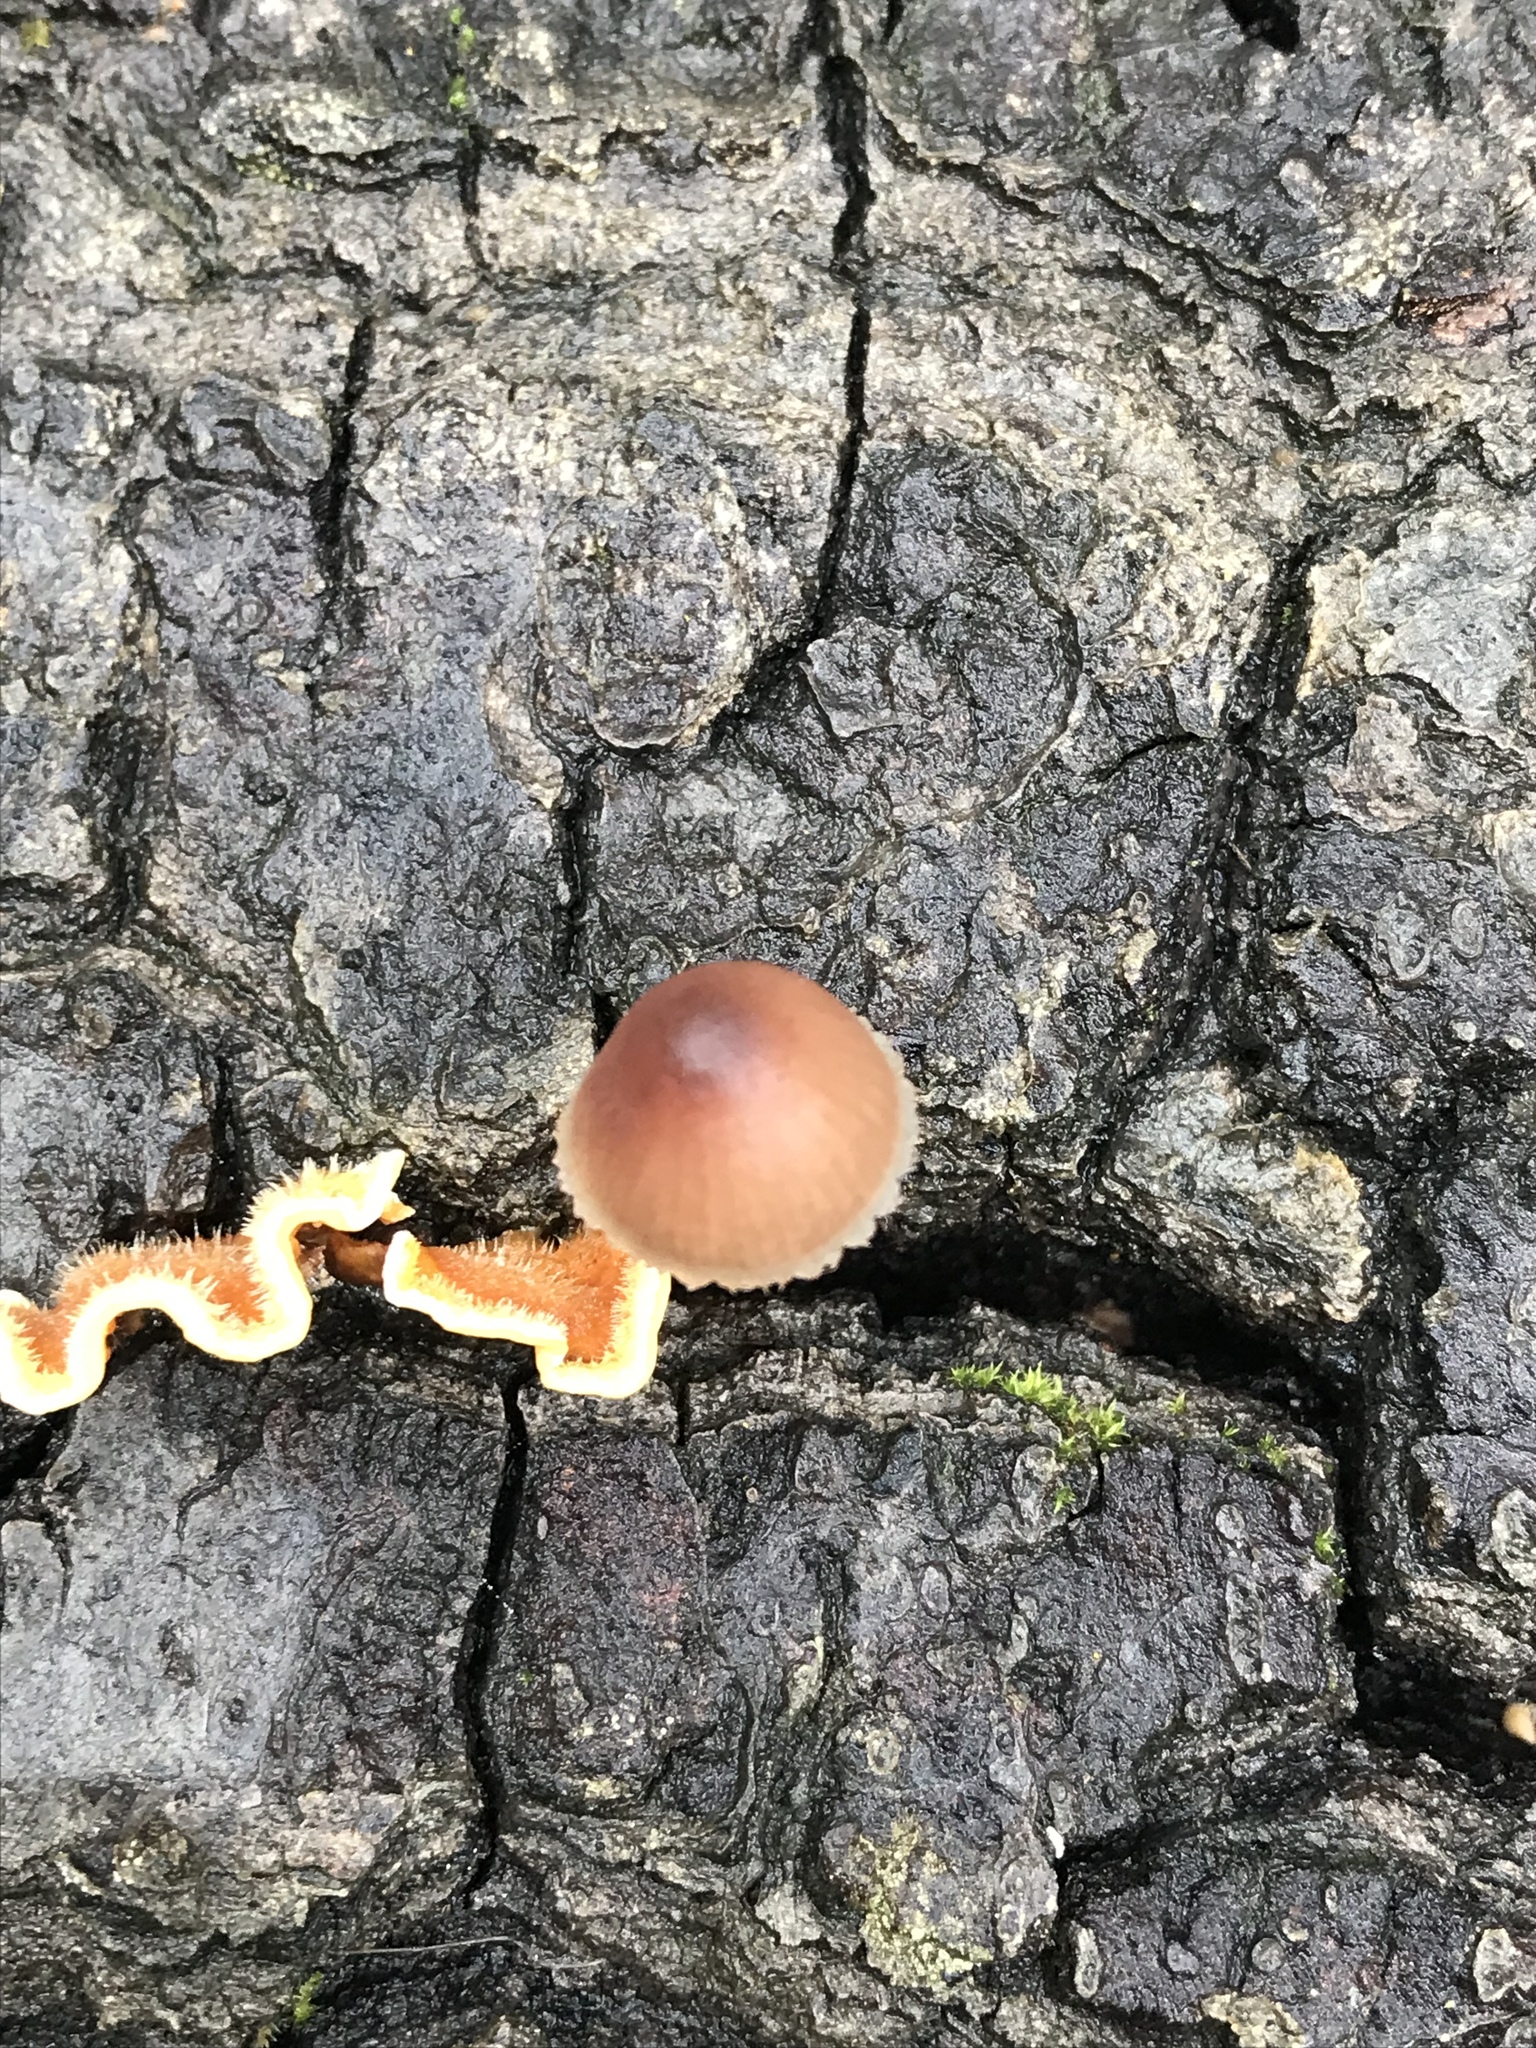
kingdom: Fungi
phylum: Basidiomycota
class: Agaricomycetes
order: Agaricales
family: Mycenaceae
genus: Mycena
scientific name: Mycena haematopus
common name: Burgundydrop bonnet
